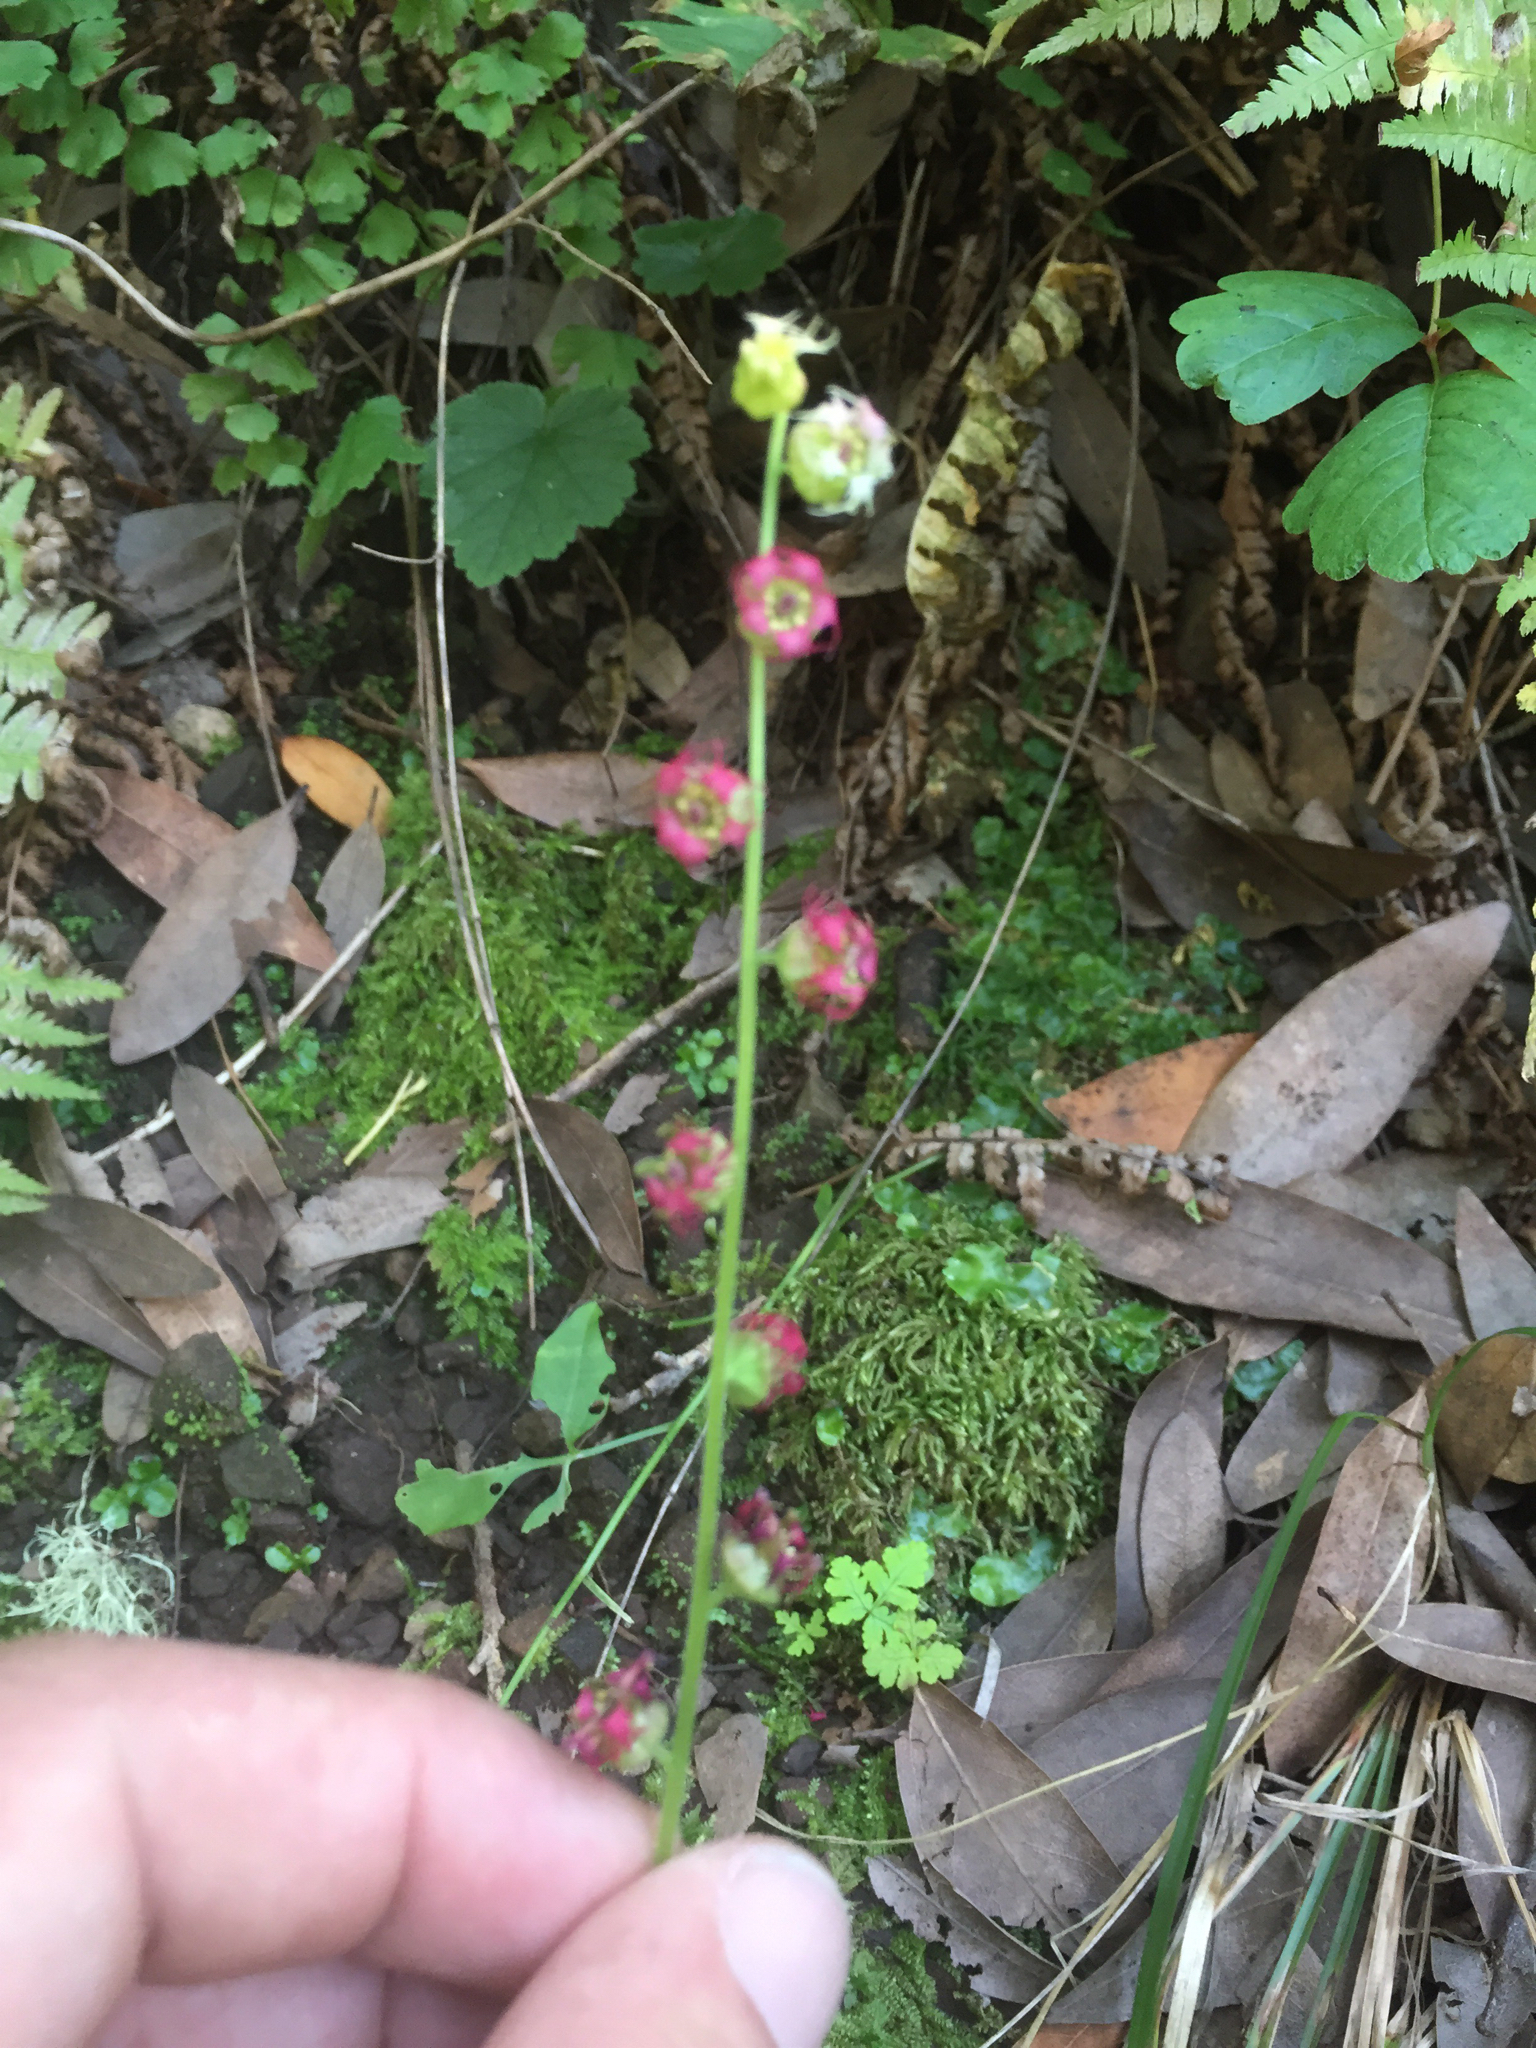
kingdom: Plantae
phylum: Tracheophyta
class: Magnoliopsida
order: Saxifragales
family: Saxifragaceae
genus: Tellima
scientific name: Tellima grandiflora
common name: Fringecups
